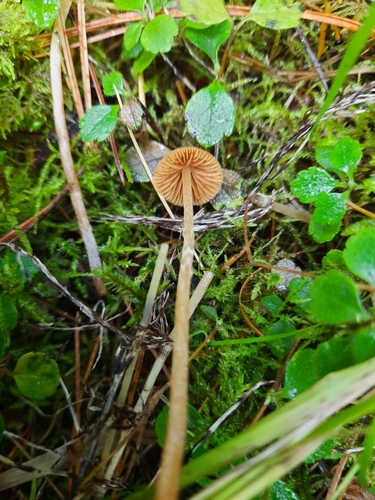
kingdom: Fungi
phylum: Basidiomycota
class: Agaricomycetes
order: Agaricales
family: Agaricaceae
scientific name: Agaricaceae
